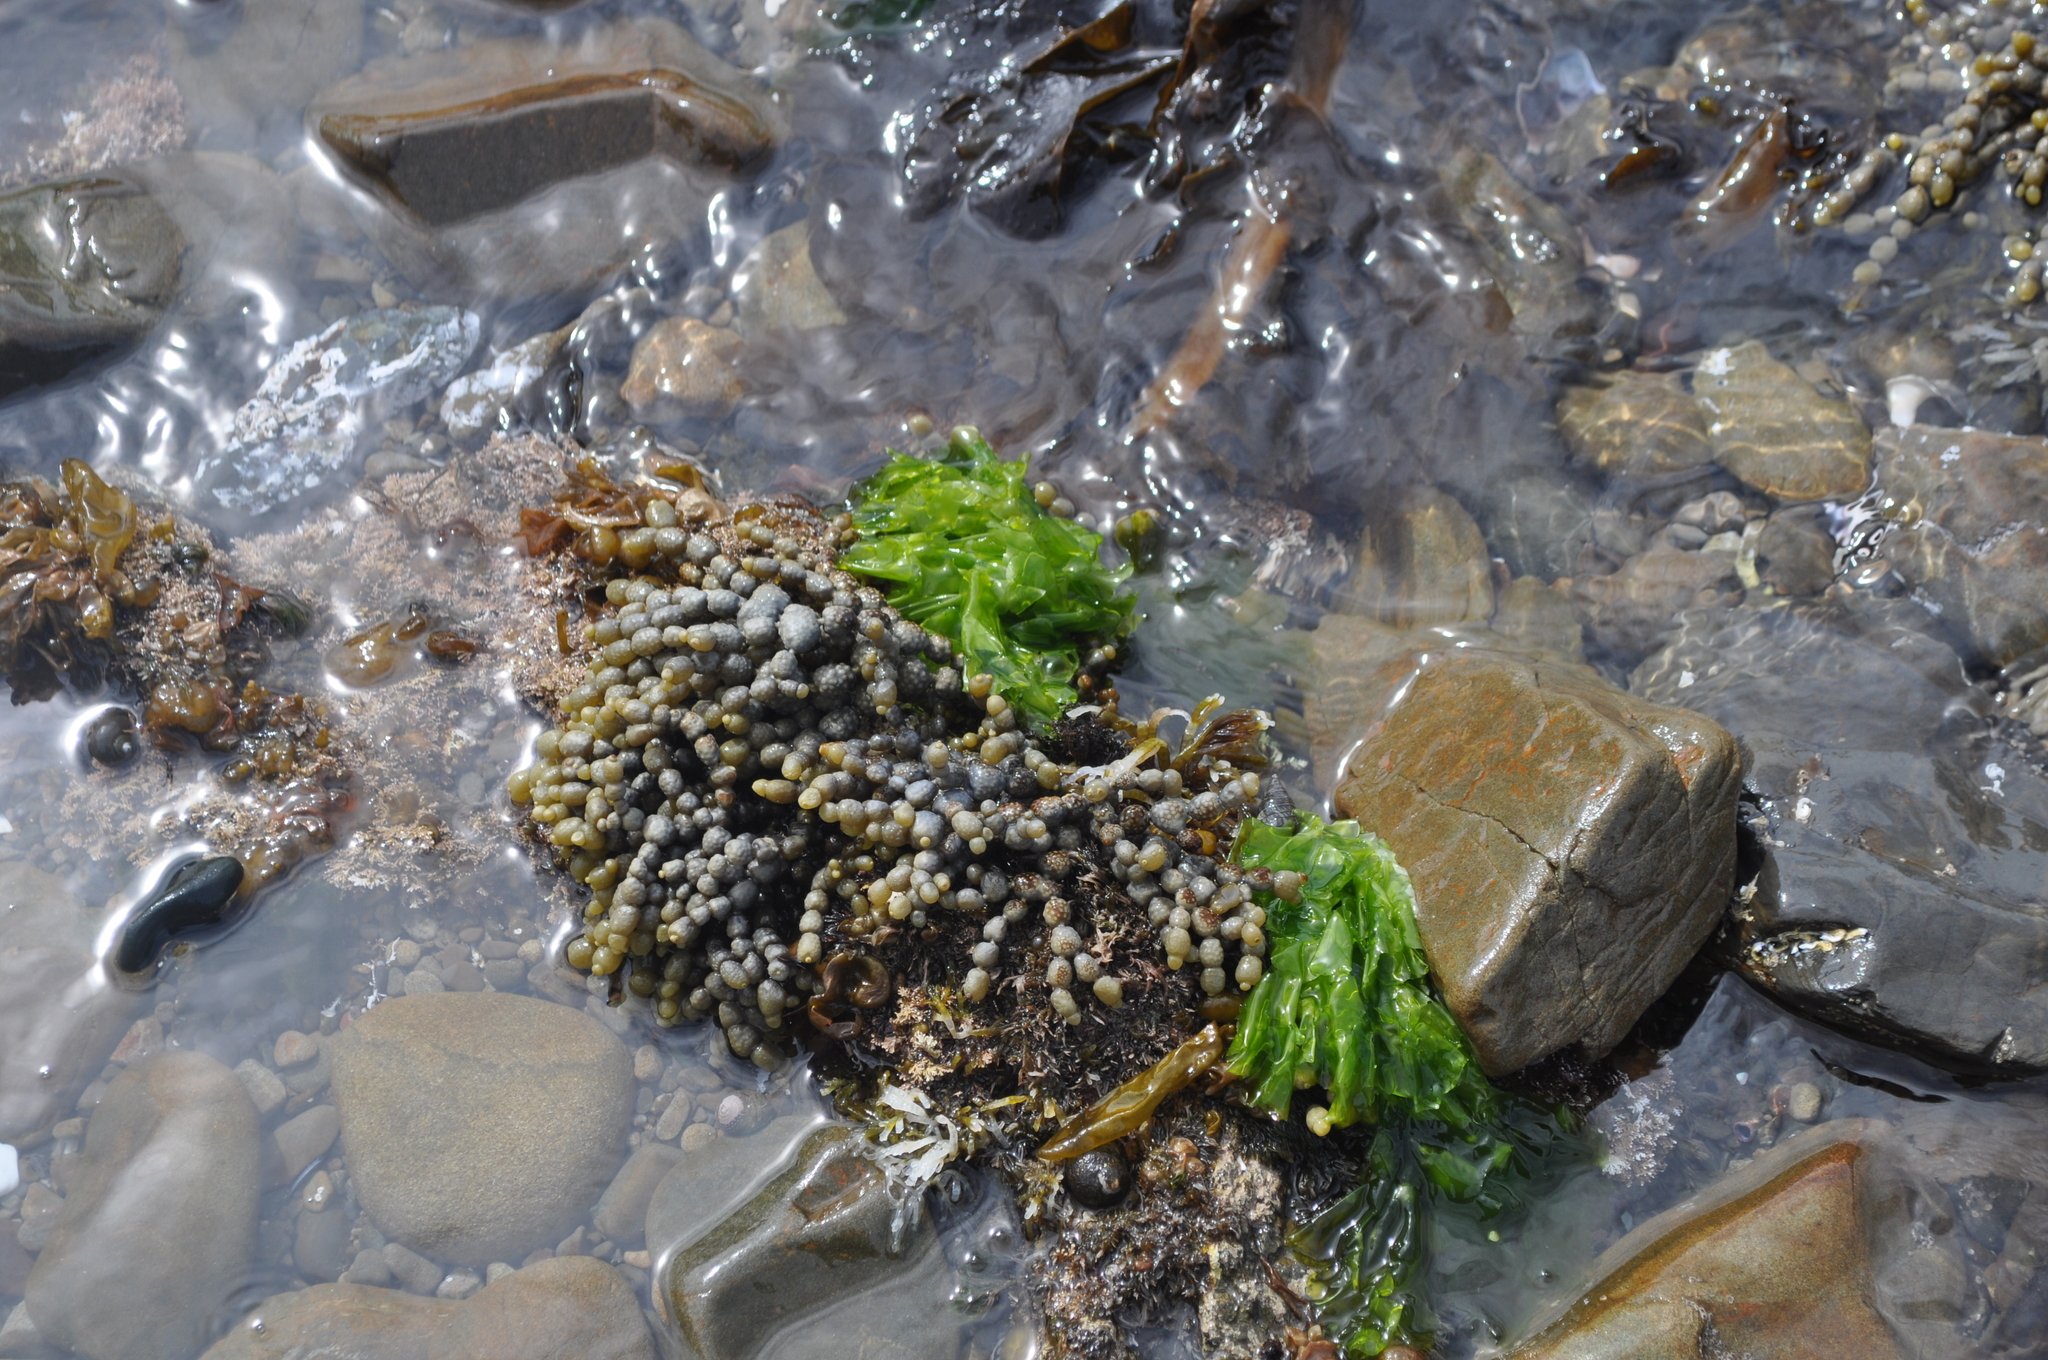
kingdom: Chromista
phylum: Ochrophyta
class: Phaeophyceae
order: Fucales
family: Hormosiraceae
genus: Hormosira
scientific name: Hormosira banksii
